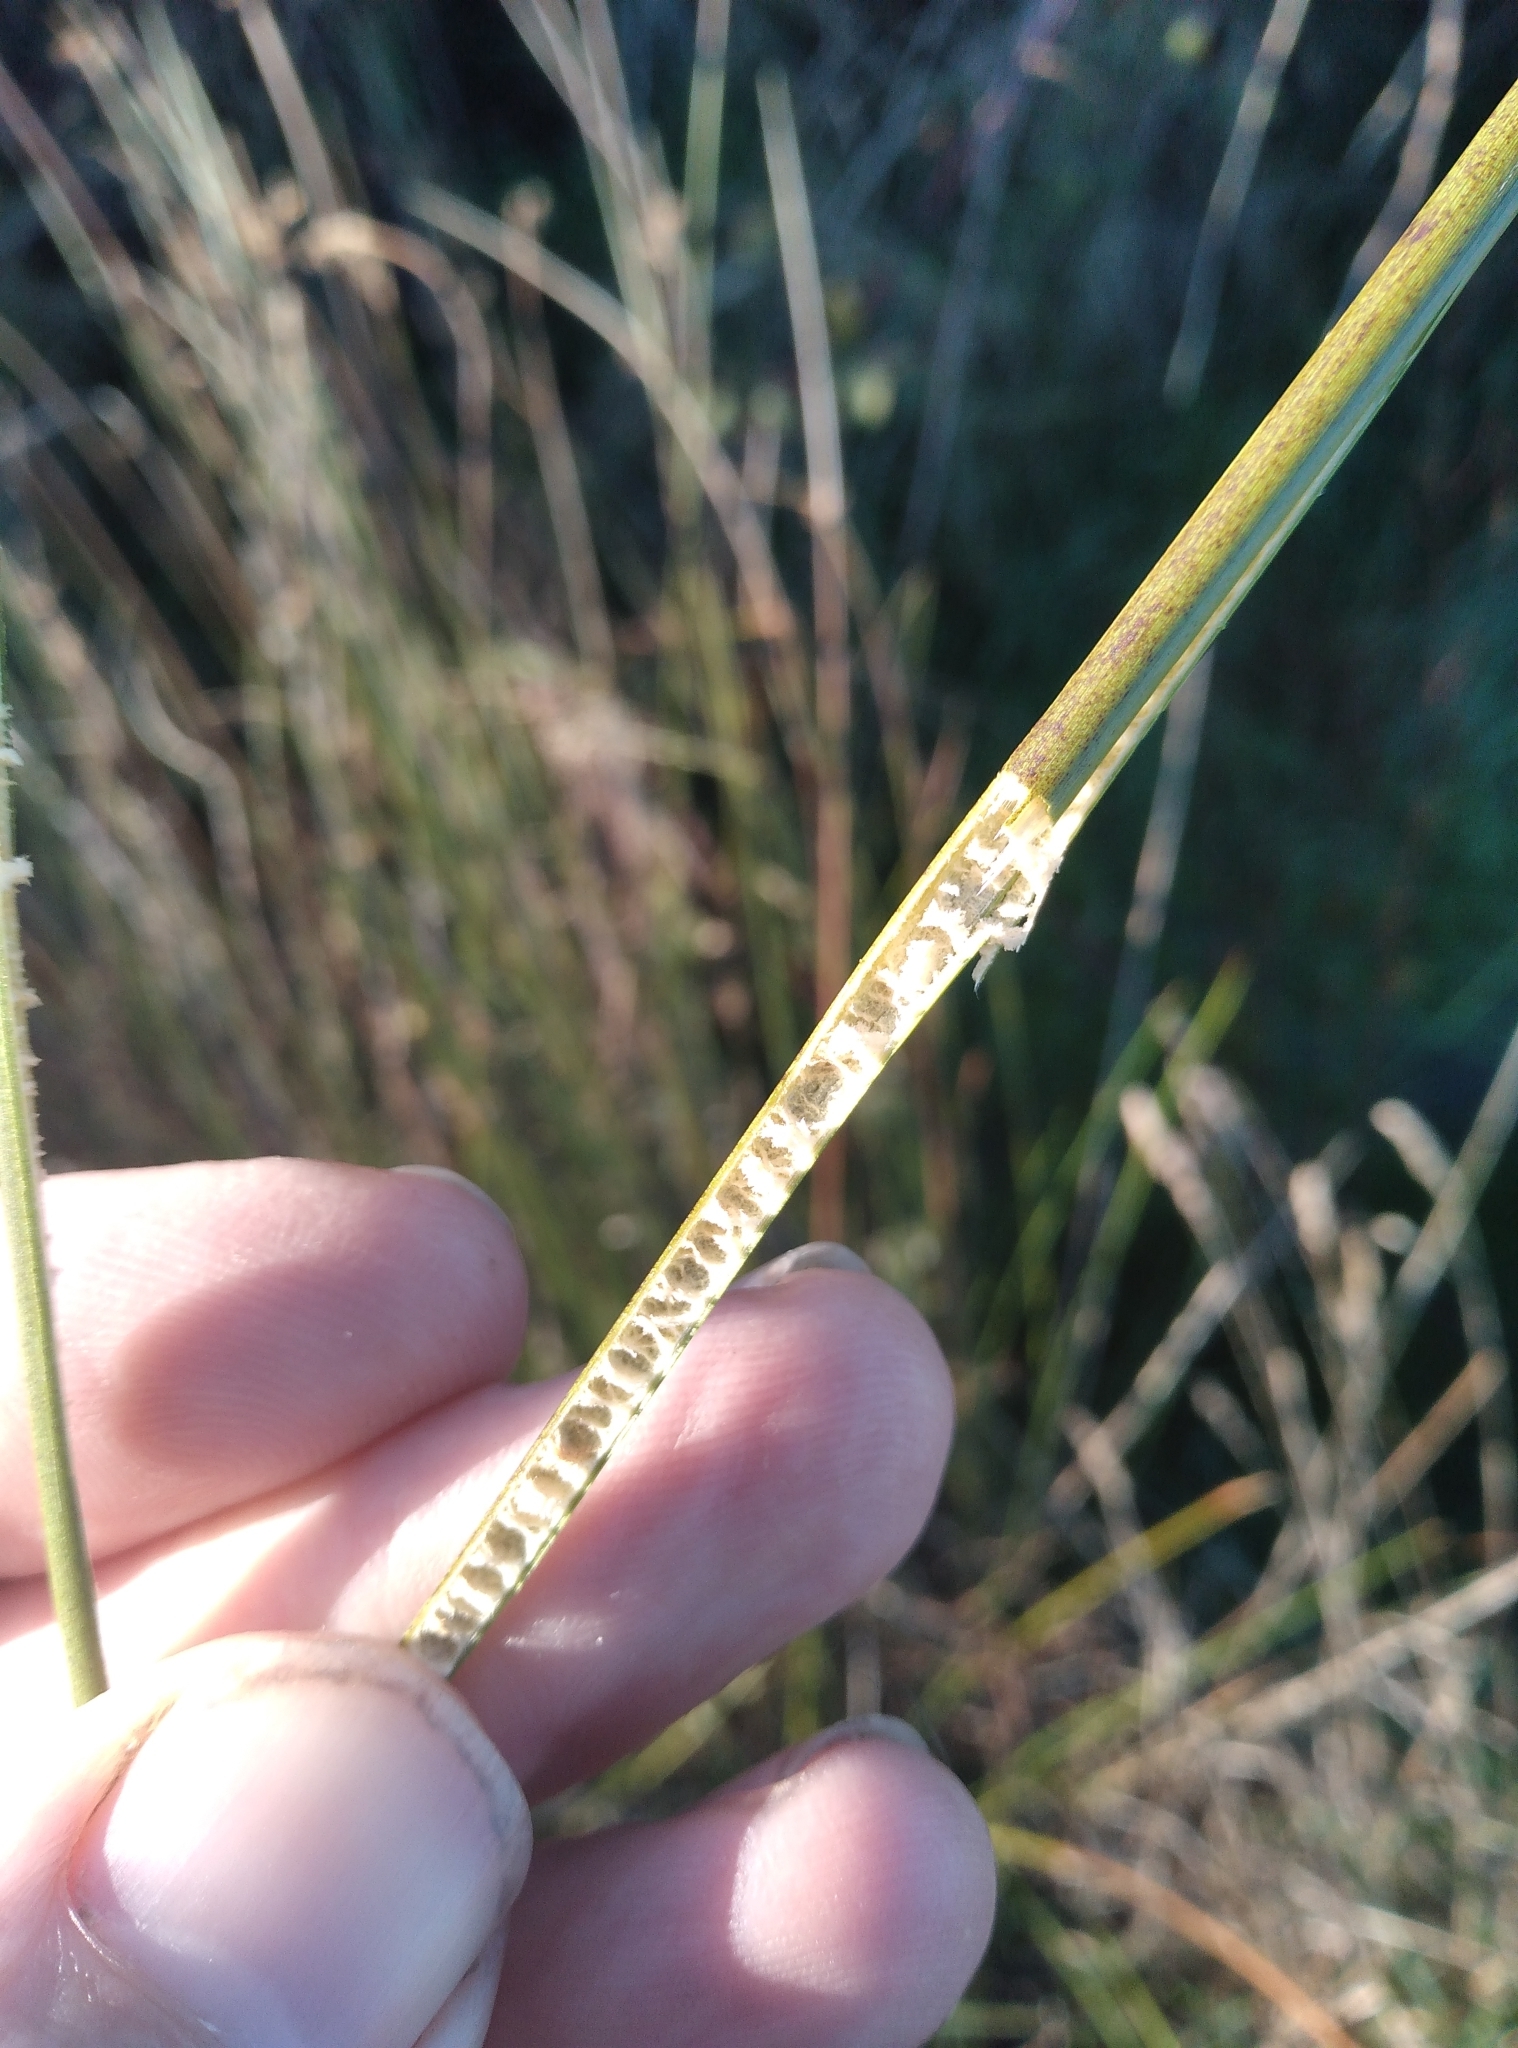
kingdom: Plantae
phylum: Tracheophyta
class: Liliopsida
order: Poales
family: Juncaceae
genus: Juncus
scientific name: Juncus edgariae
